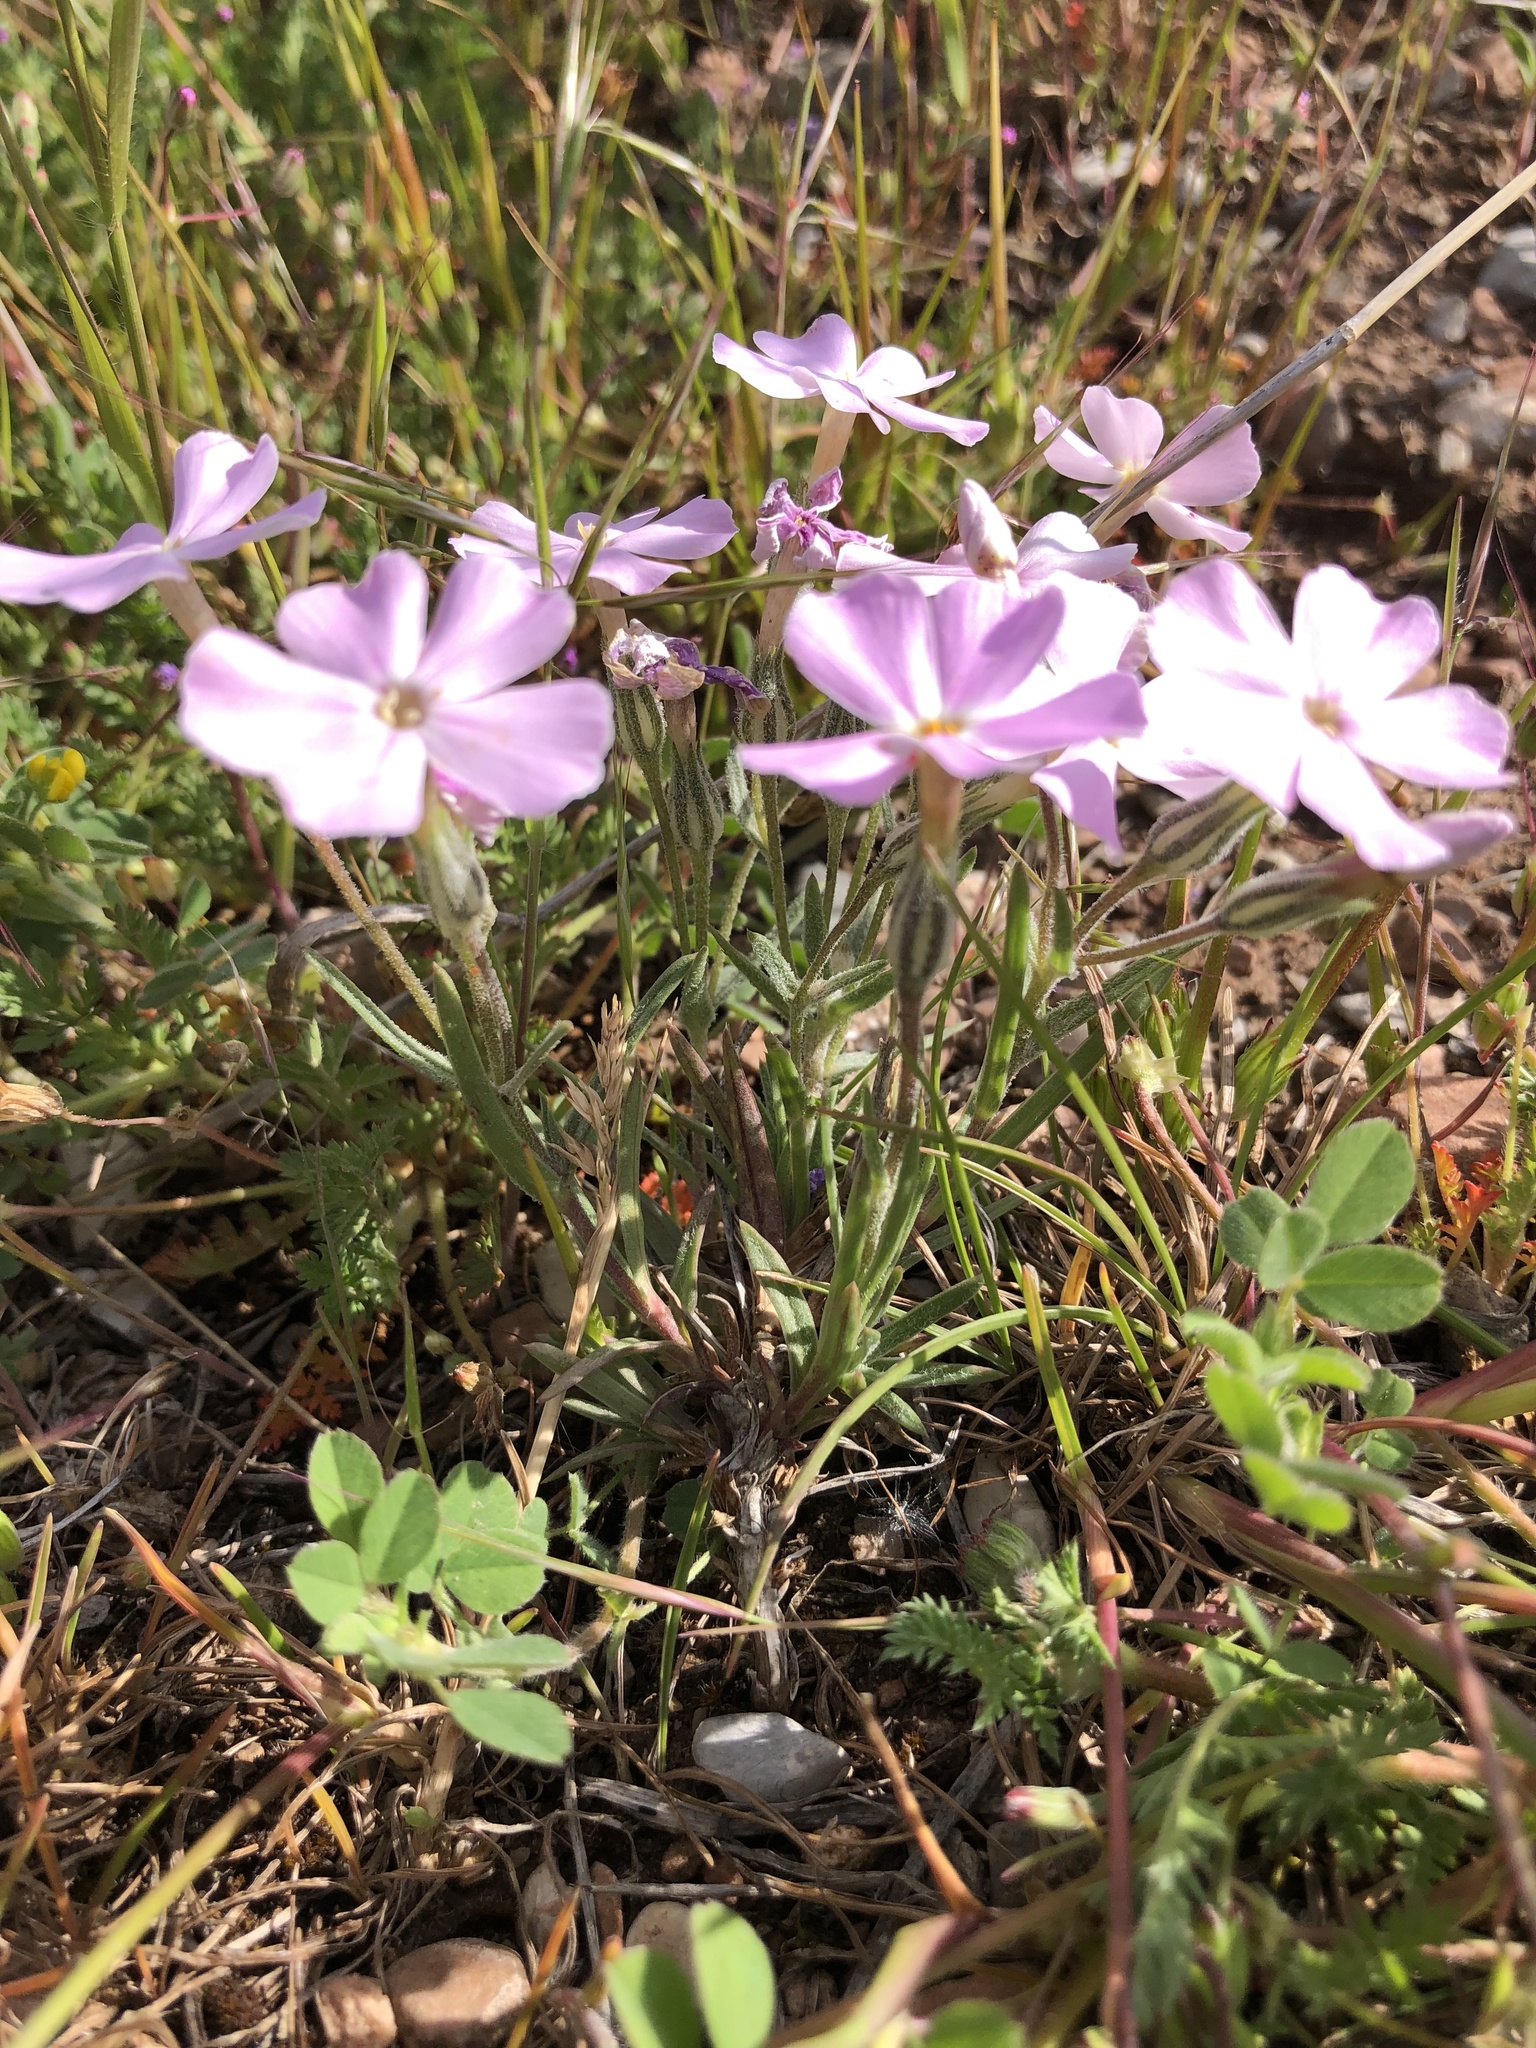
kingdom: Plantae
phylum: Tracheophyta
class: Magnoliopsida
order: Ericales
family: Polemoniaceae
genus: Phlox
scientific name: Phlox longifolia
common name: Longleaf phlox
